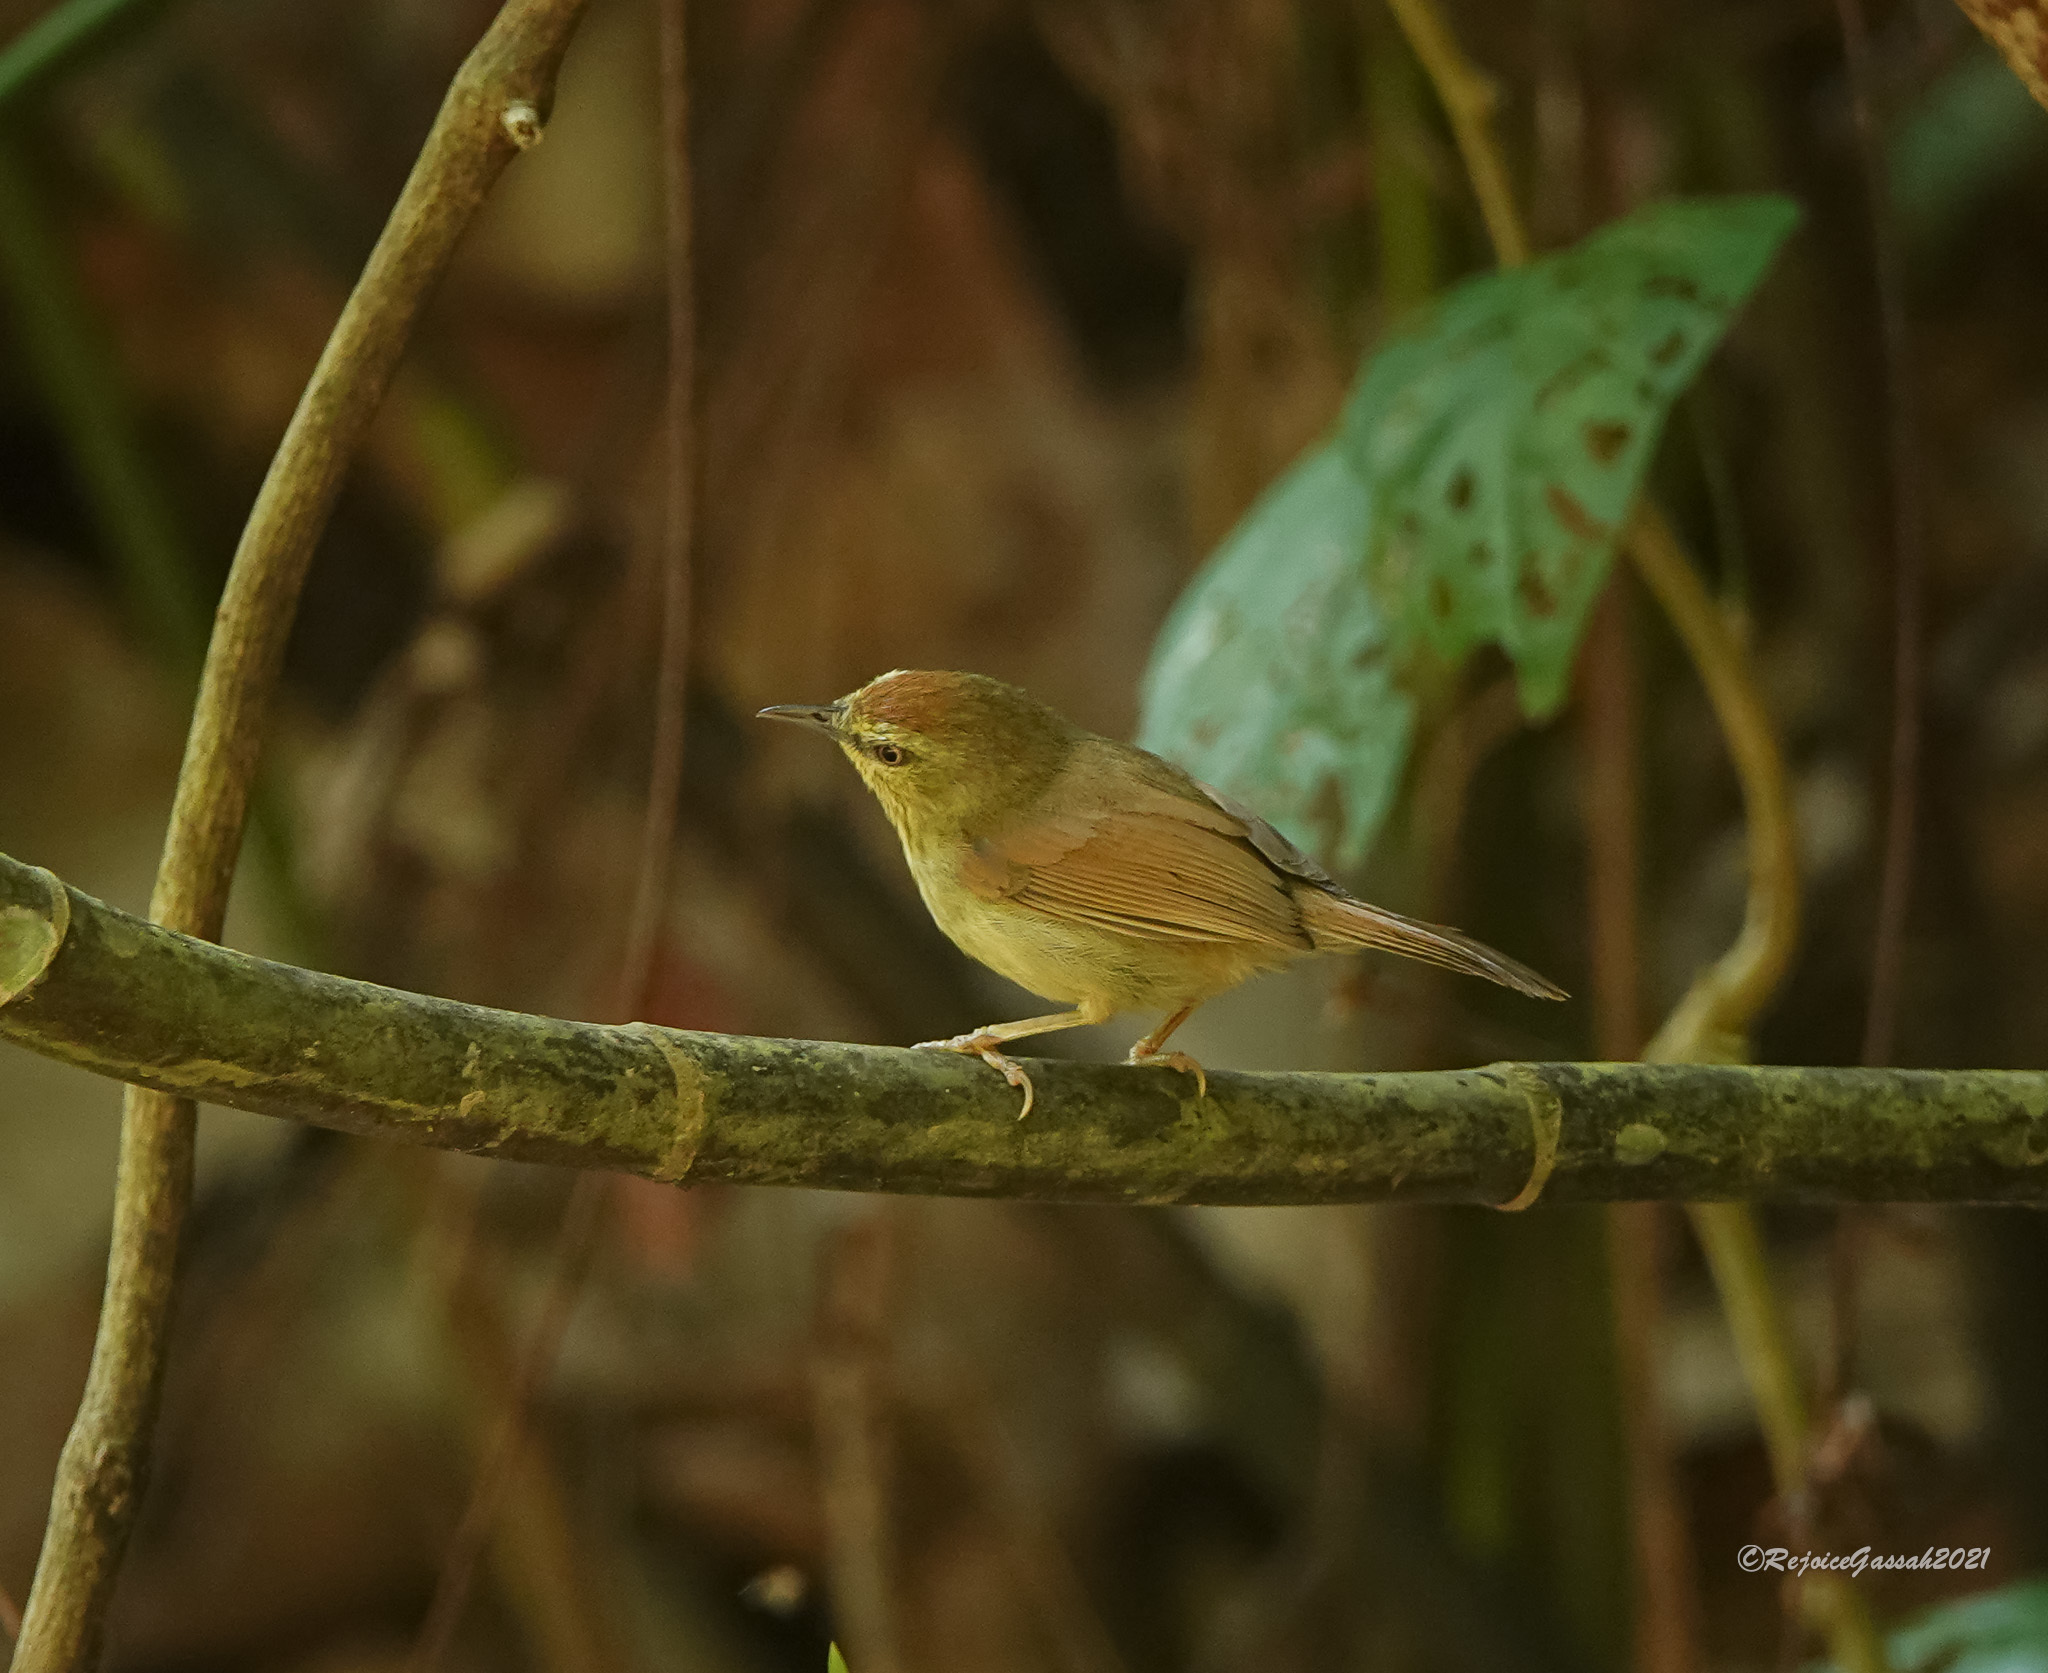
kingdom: Animalia
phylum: Chordata
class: Aves
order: Passeriformes
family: Timaliidae
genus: Macronus
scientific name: Macronus gularis
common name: Striped tit-babbler
